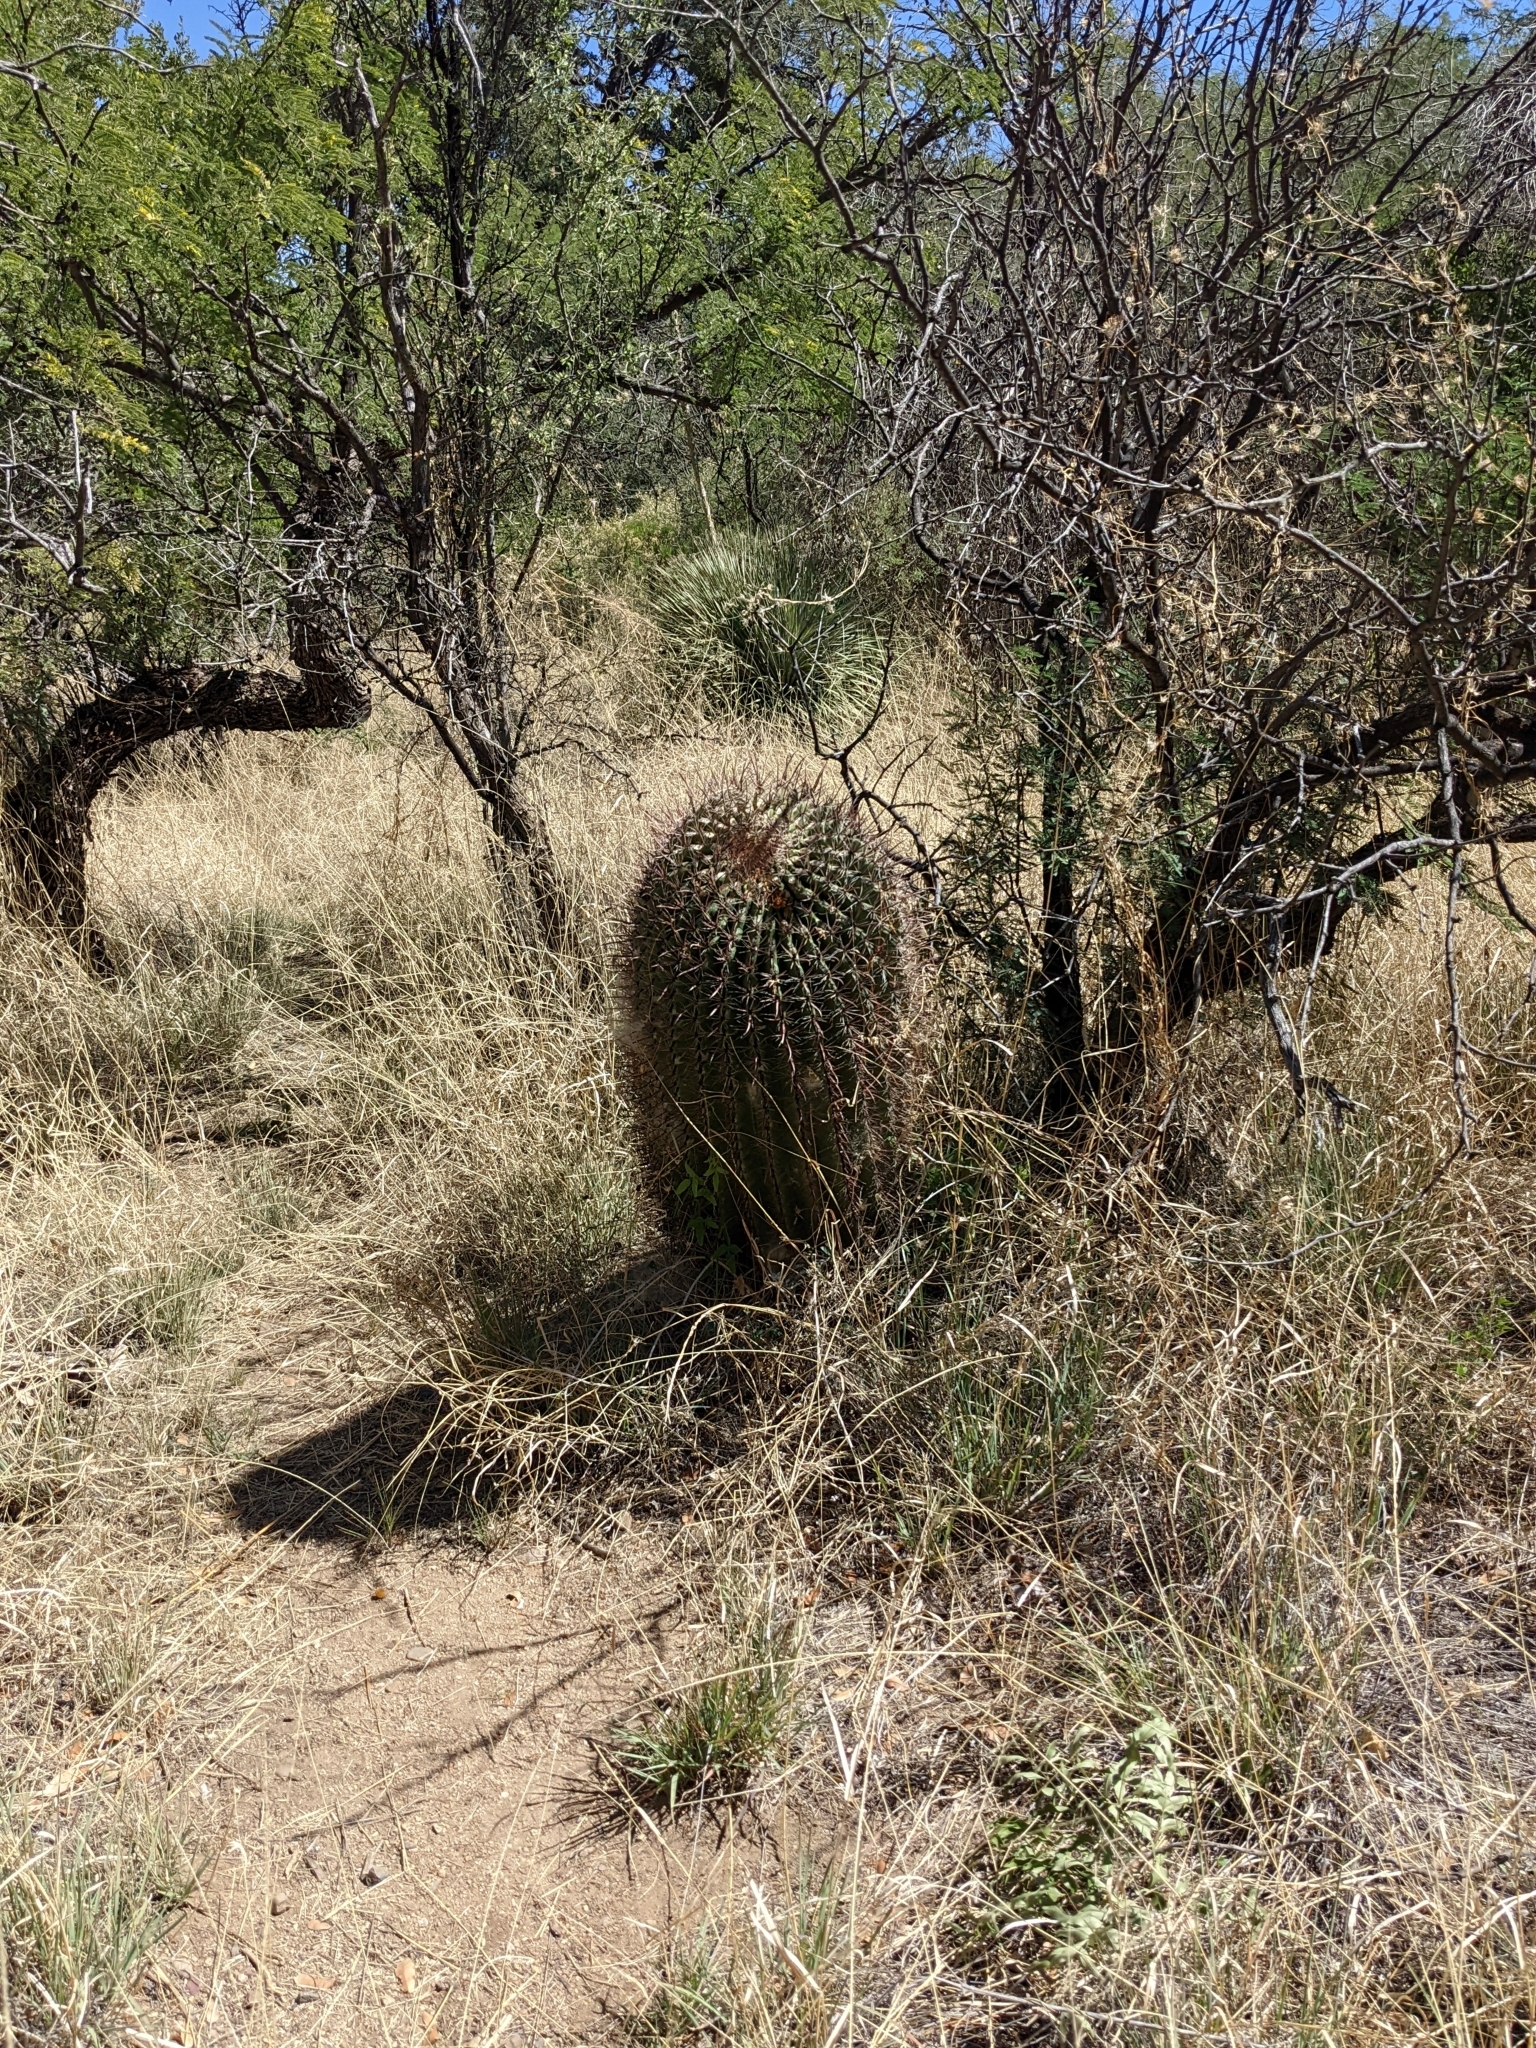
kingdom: Plantae
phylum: Tracheophyta
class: Magnoliopsida
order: Caryophyllales
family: Cactaceae
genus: Ferocactus
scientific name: Ferocactus wislizeni
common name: Candy barrel cactus
